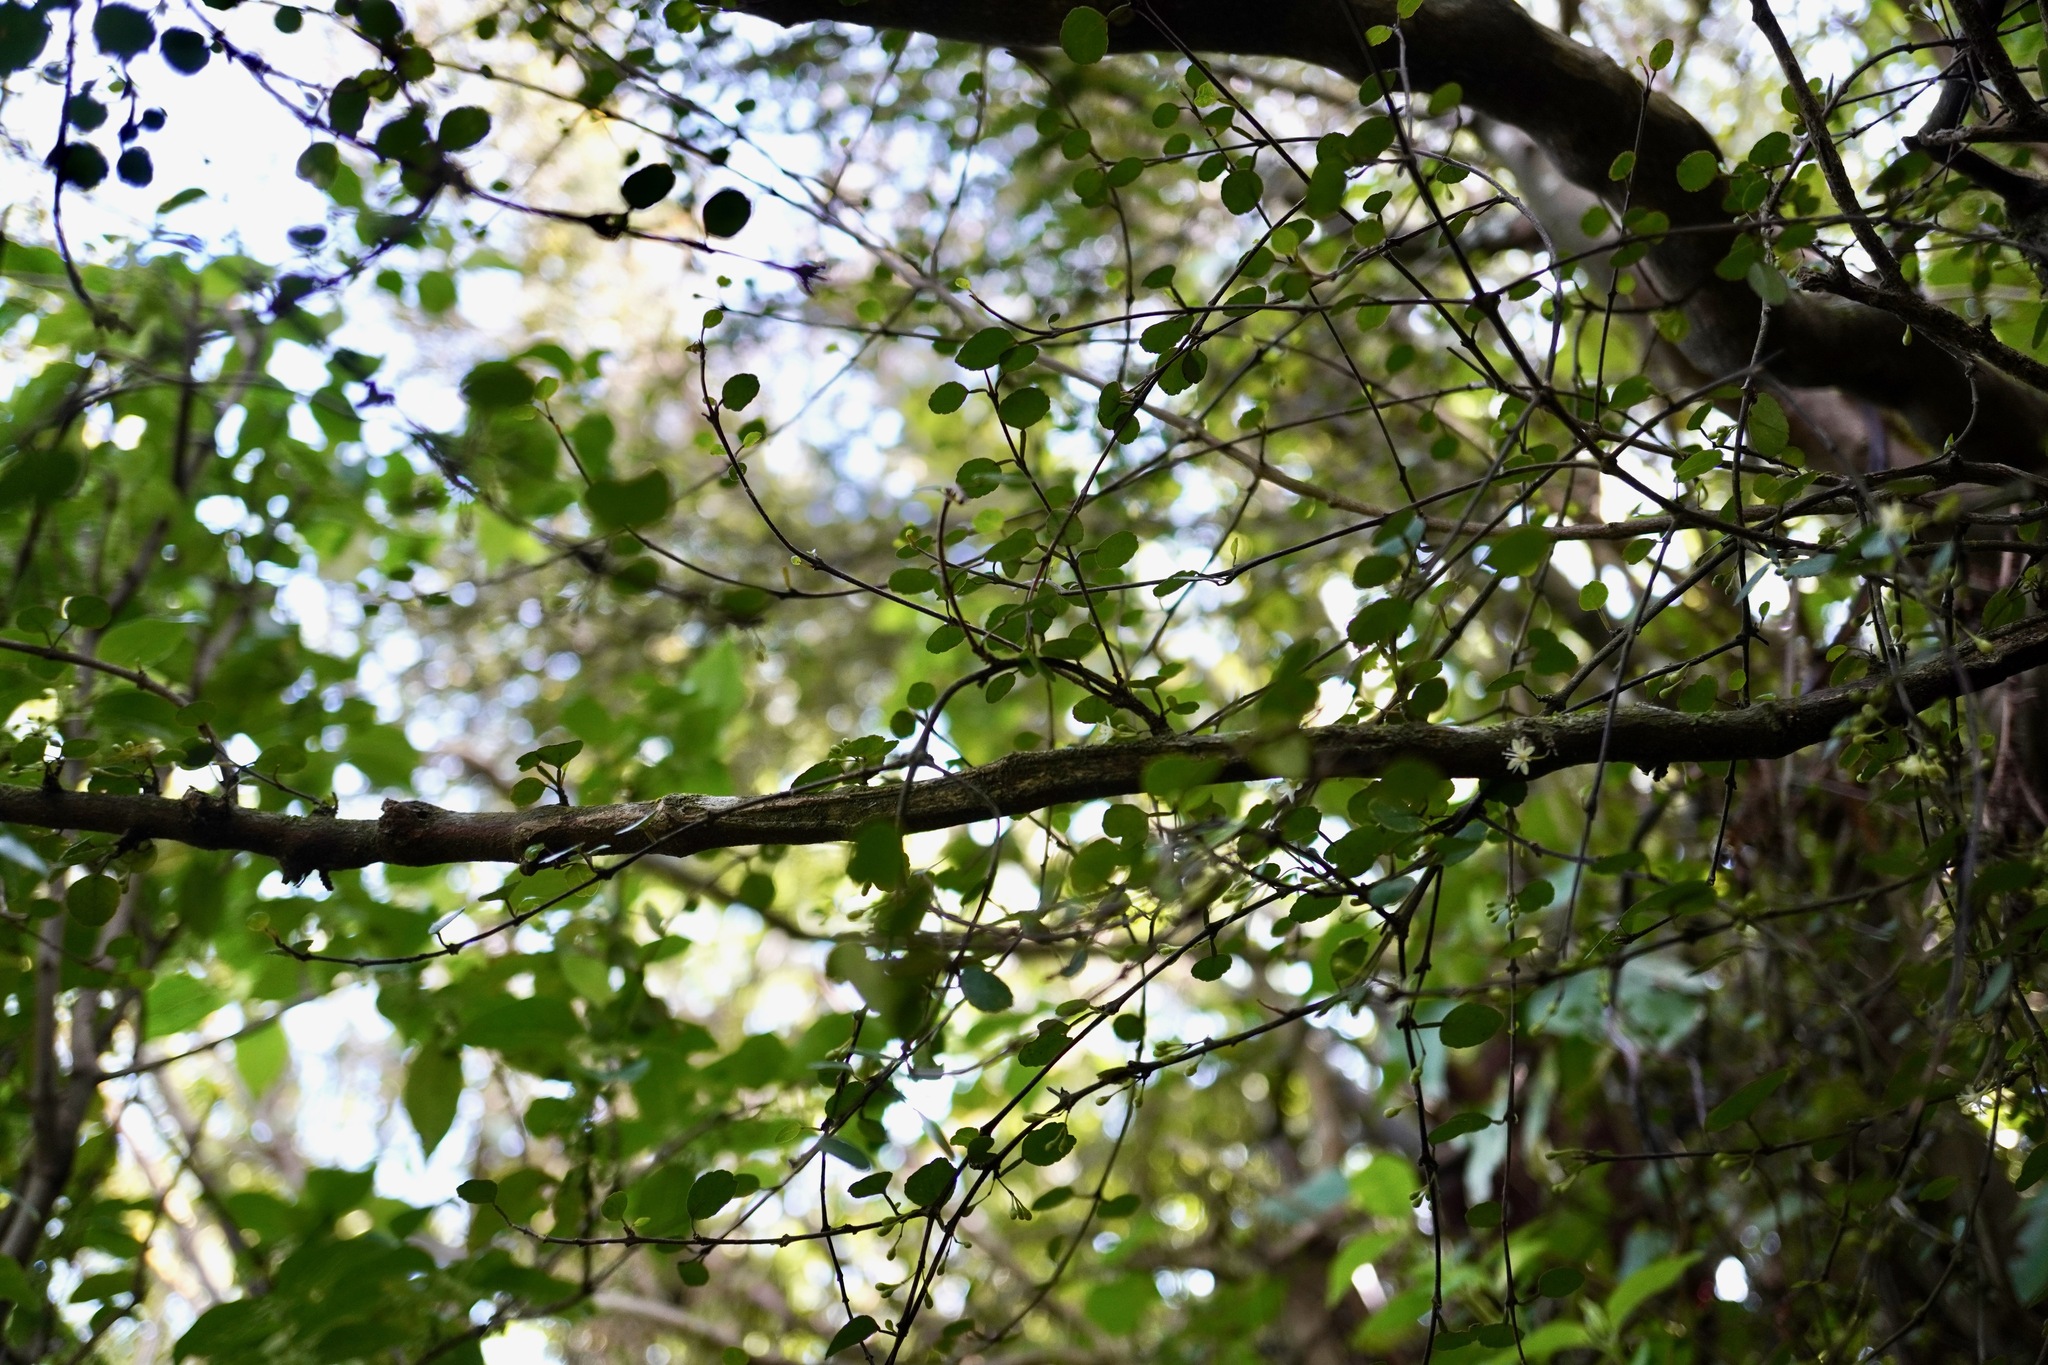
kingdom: Plantae
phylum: Tracheophyta
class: Magnoliopsida
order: Sapindales
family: Rutaceae
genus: Melicope
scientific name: Melicope simplex
